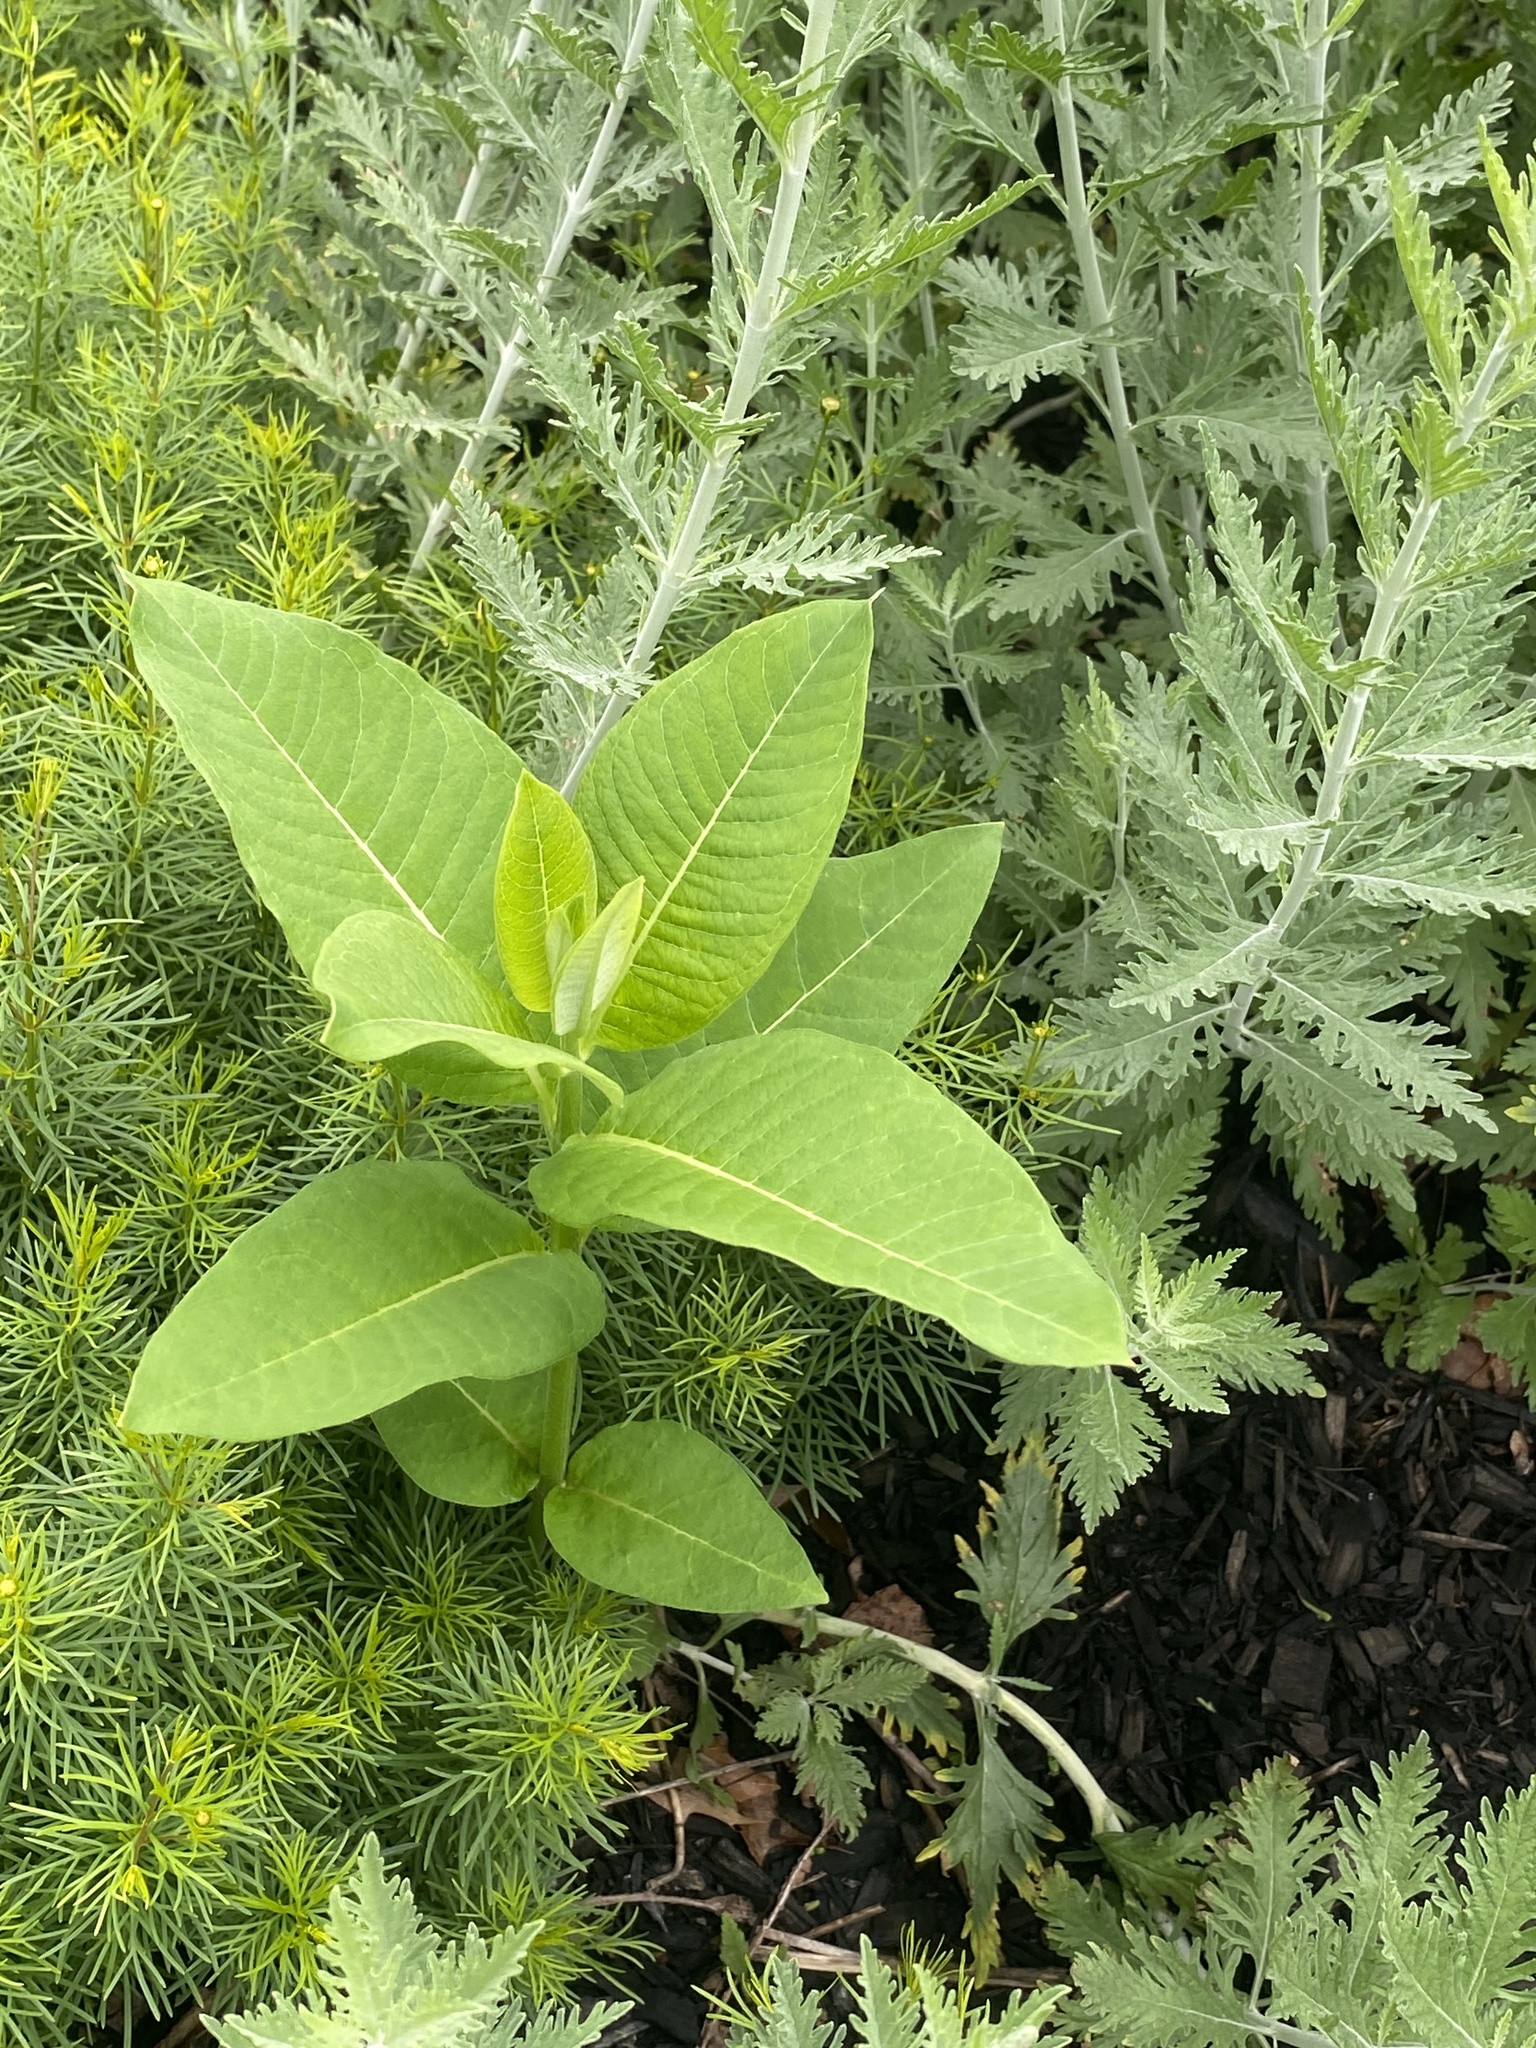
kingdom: Plantae
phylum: Tracheophyta
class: Magnoliopsida
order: Gentianales
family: Apocynaceae
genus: Asclepias
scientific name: Asclepias syriaca
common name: Common milkweed
